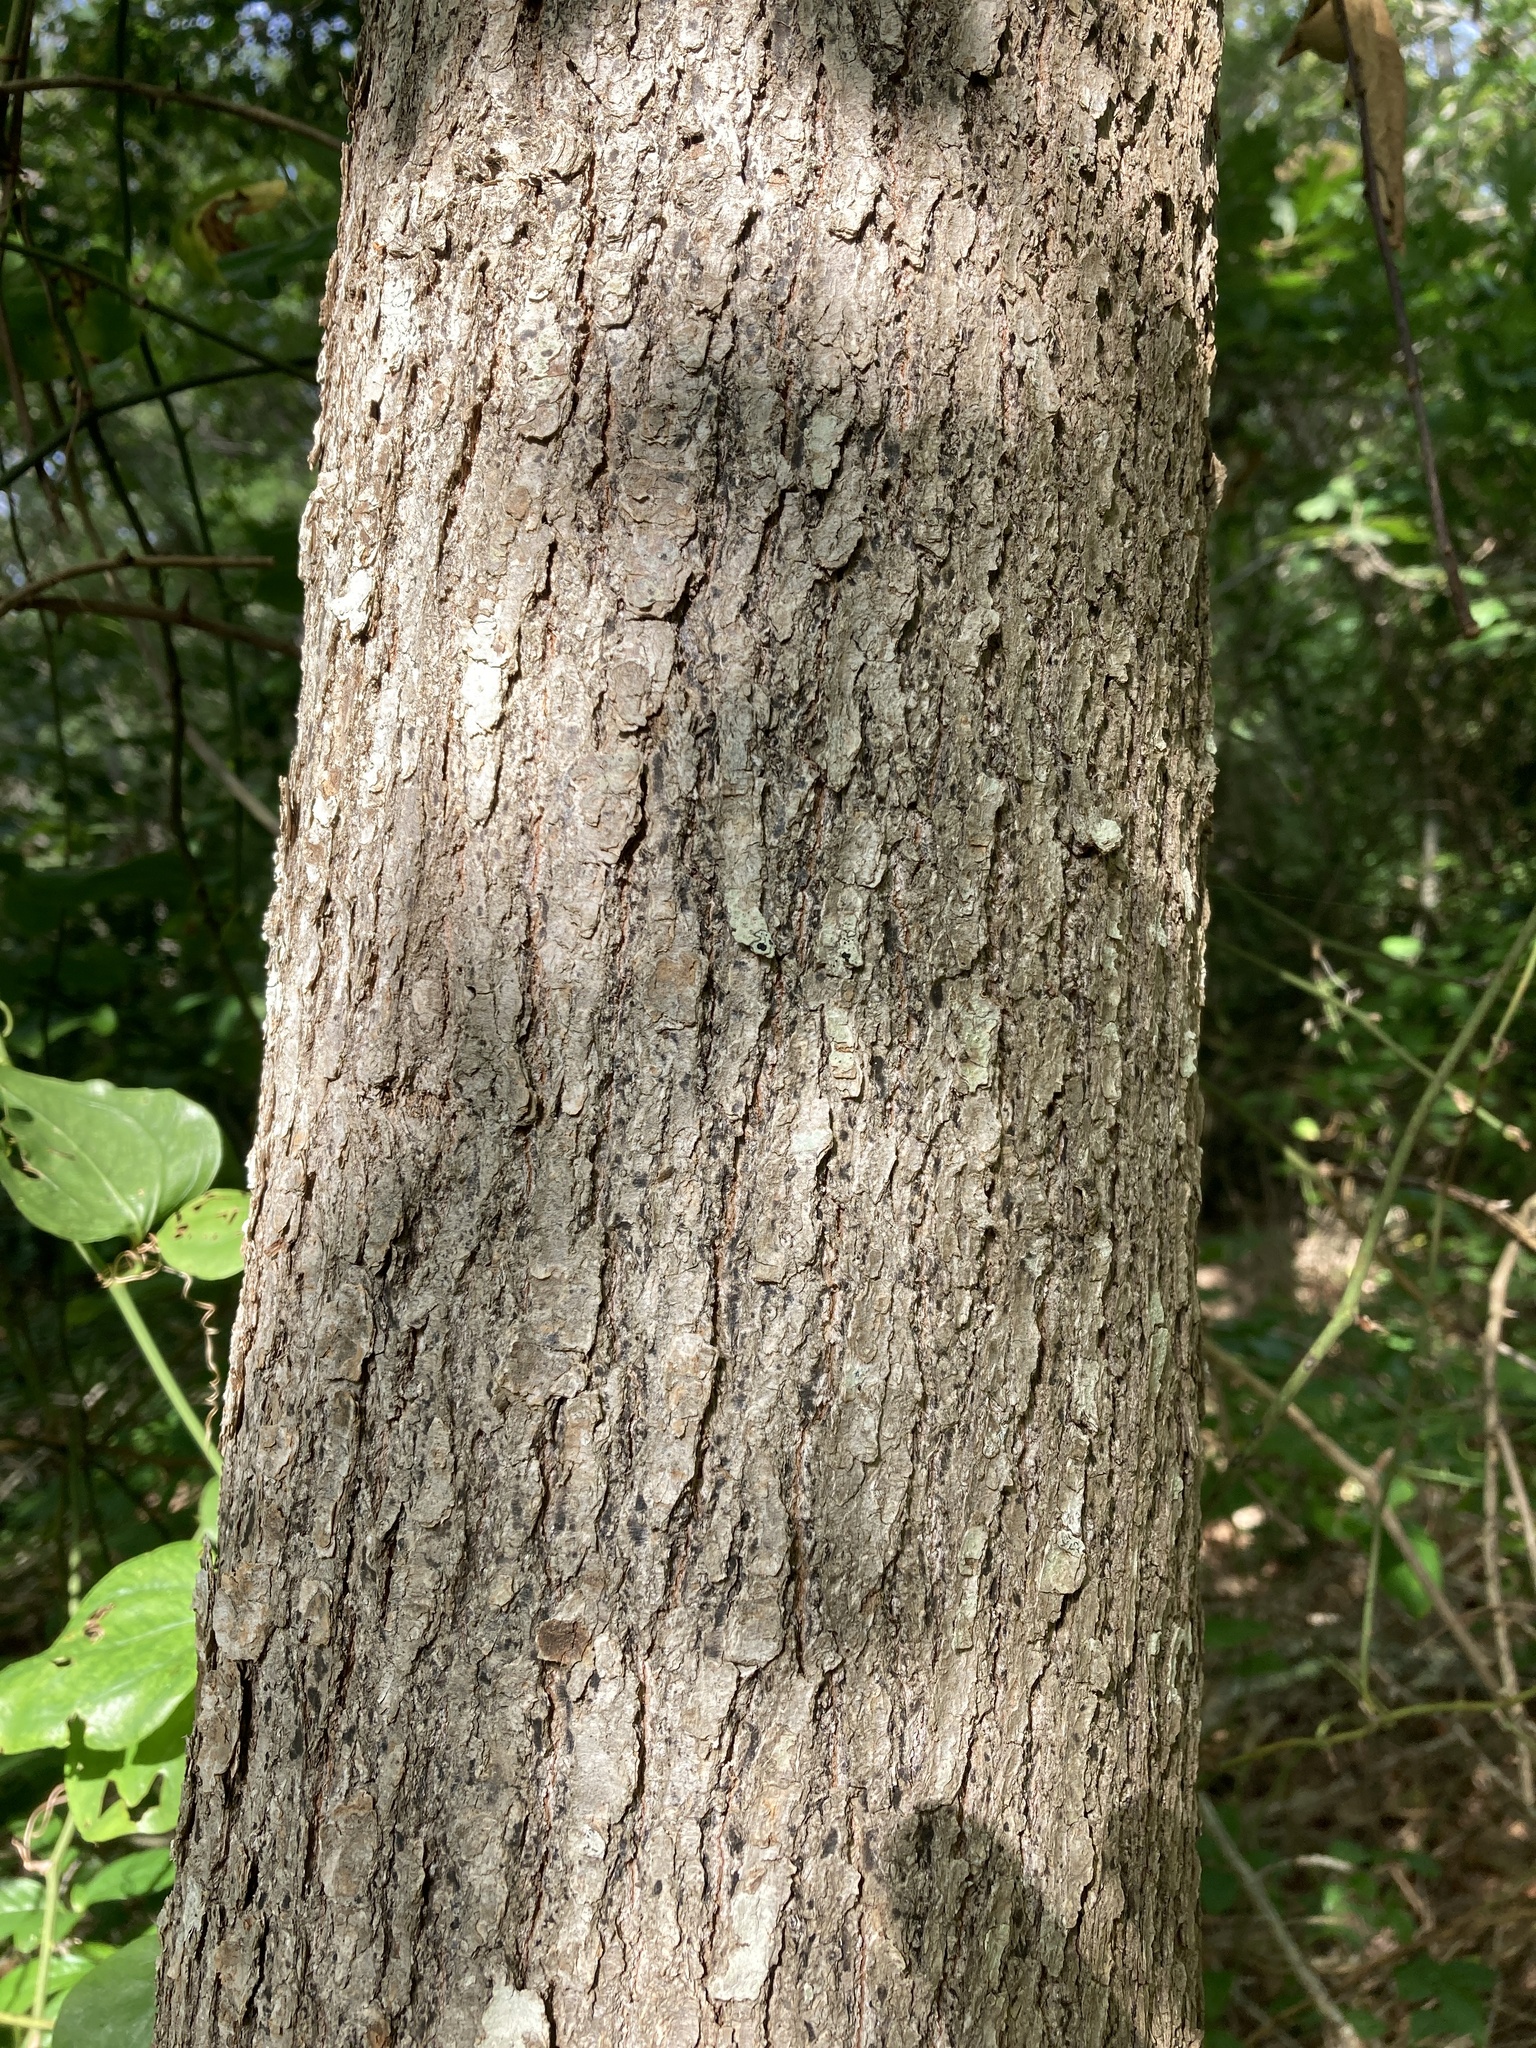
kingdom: Plantae
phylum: Tracheophyta
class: Magnoliopsida
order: Cornales
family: Nyssaceae
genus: Nyssa
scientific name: Nyssa sylvatica
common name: Black tupelo
